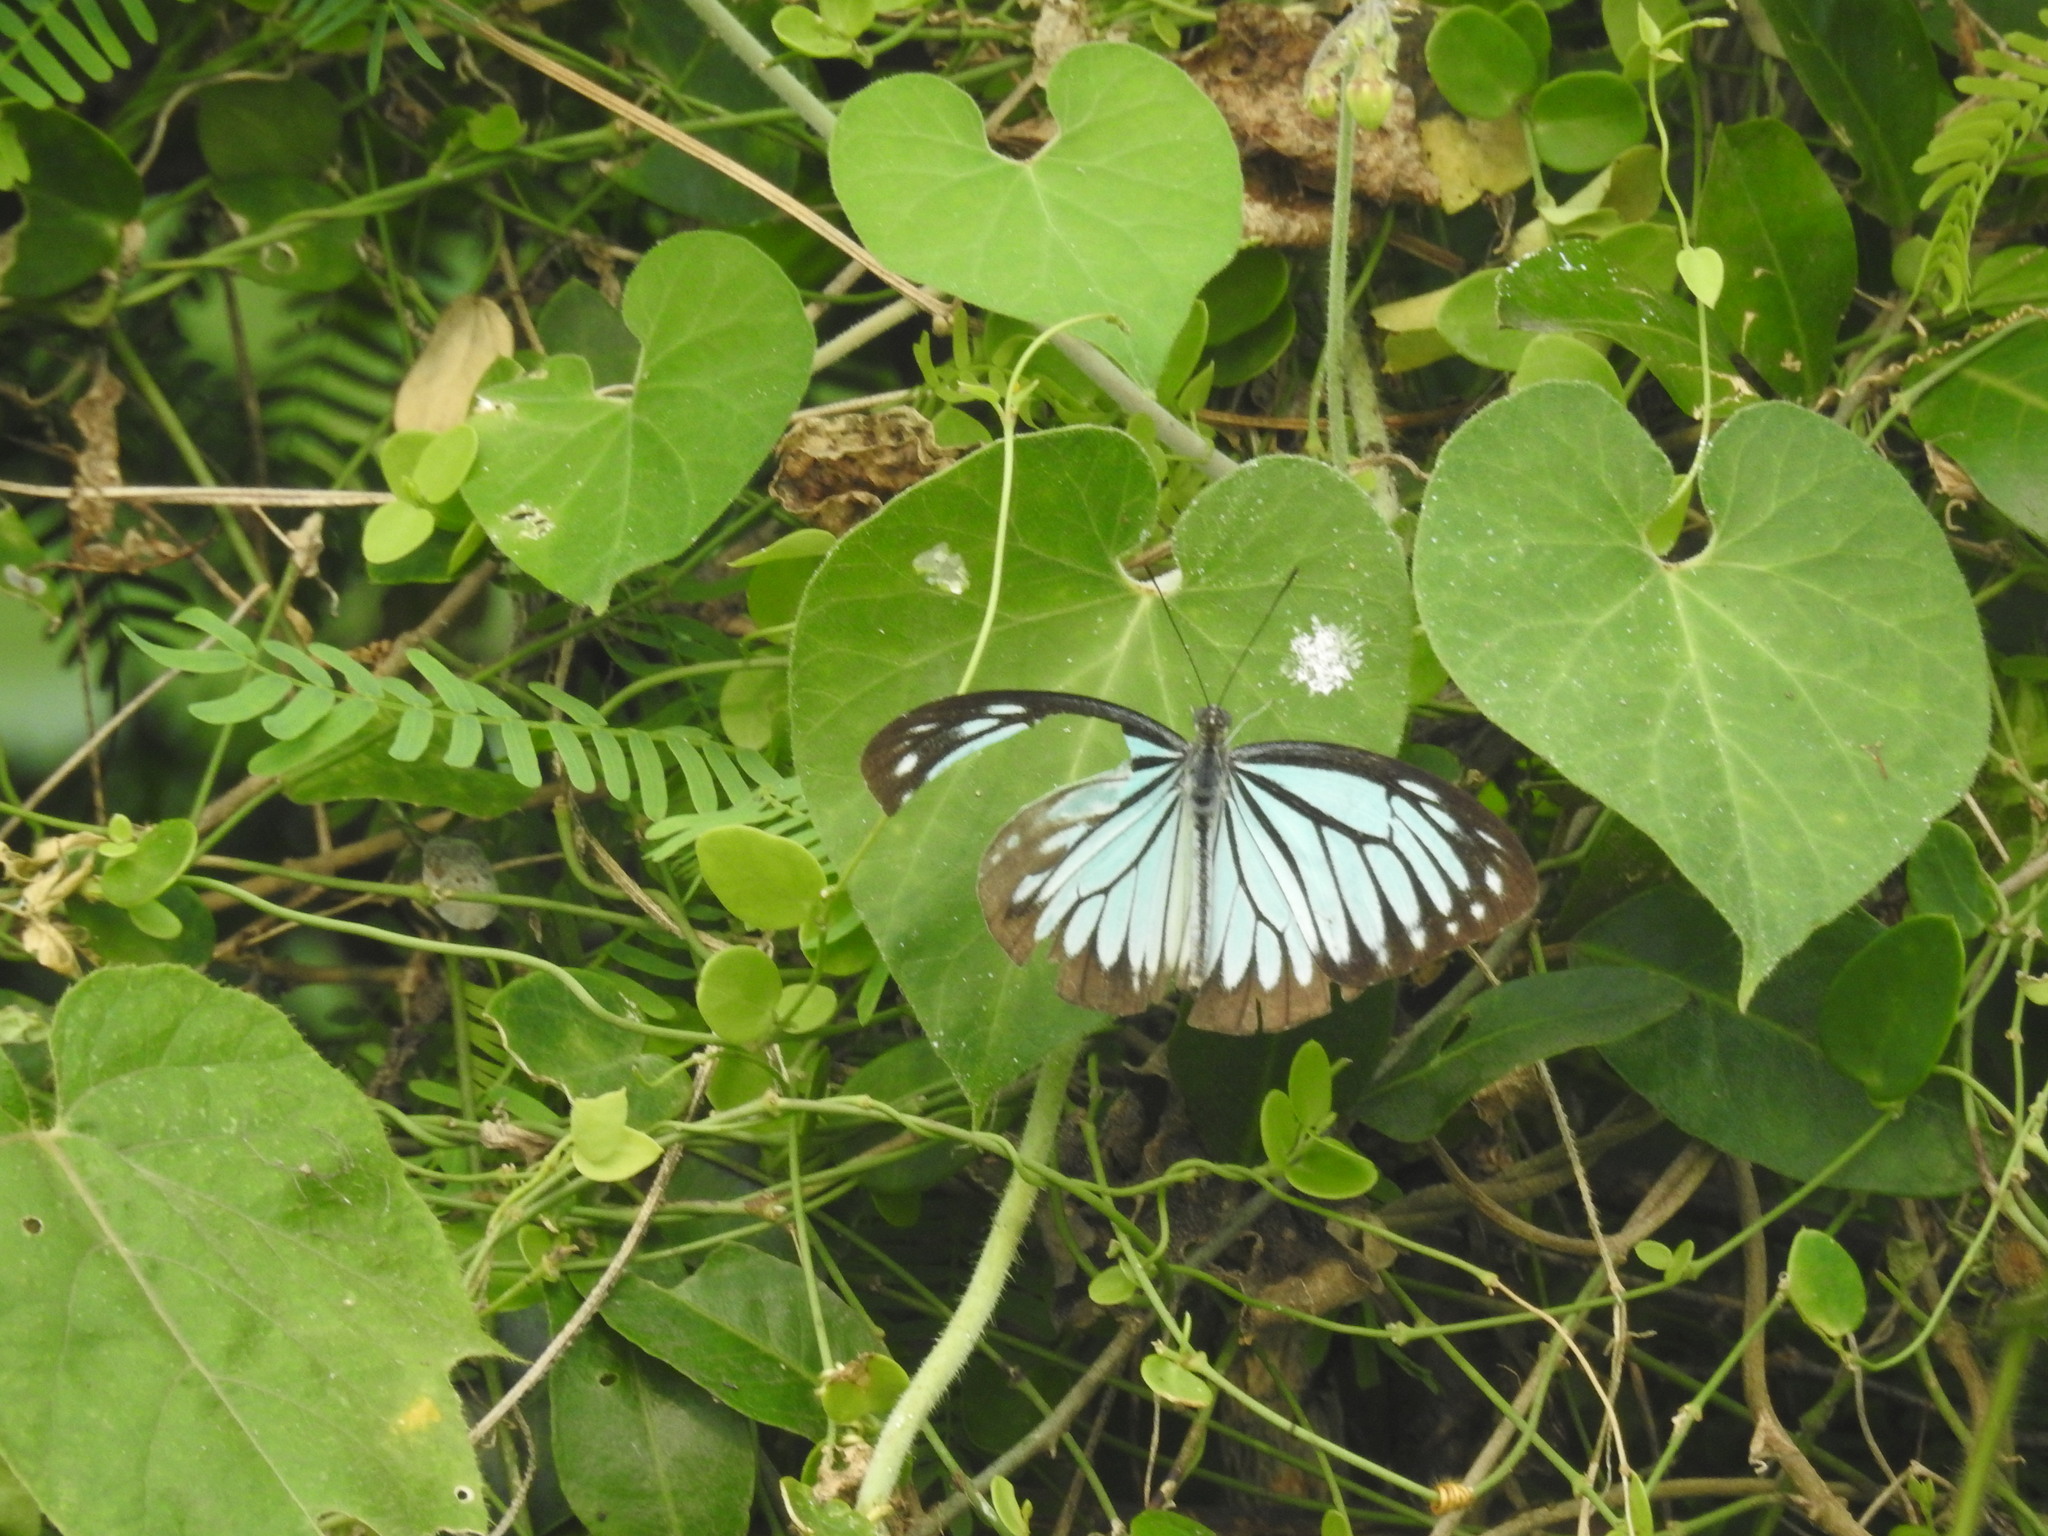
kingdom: Animalia
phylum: Arthropoda
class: Insecta
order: Lepidoptera
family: Pieridae
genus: Pareronia
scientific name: Pareronia hippia
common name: Indian wanderer
